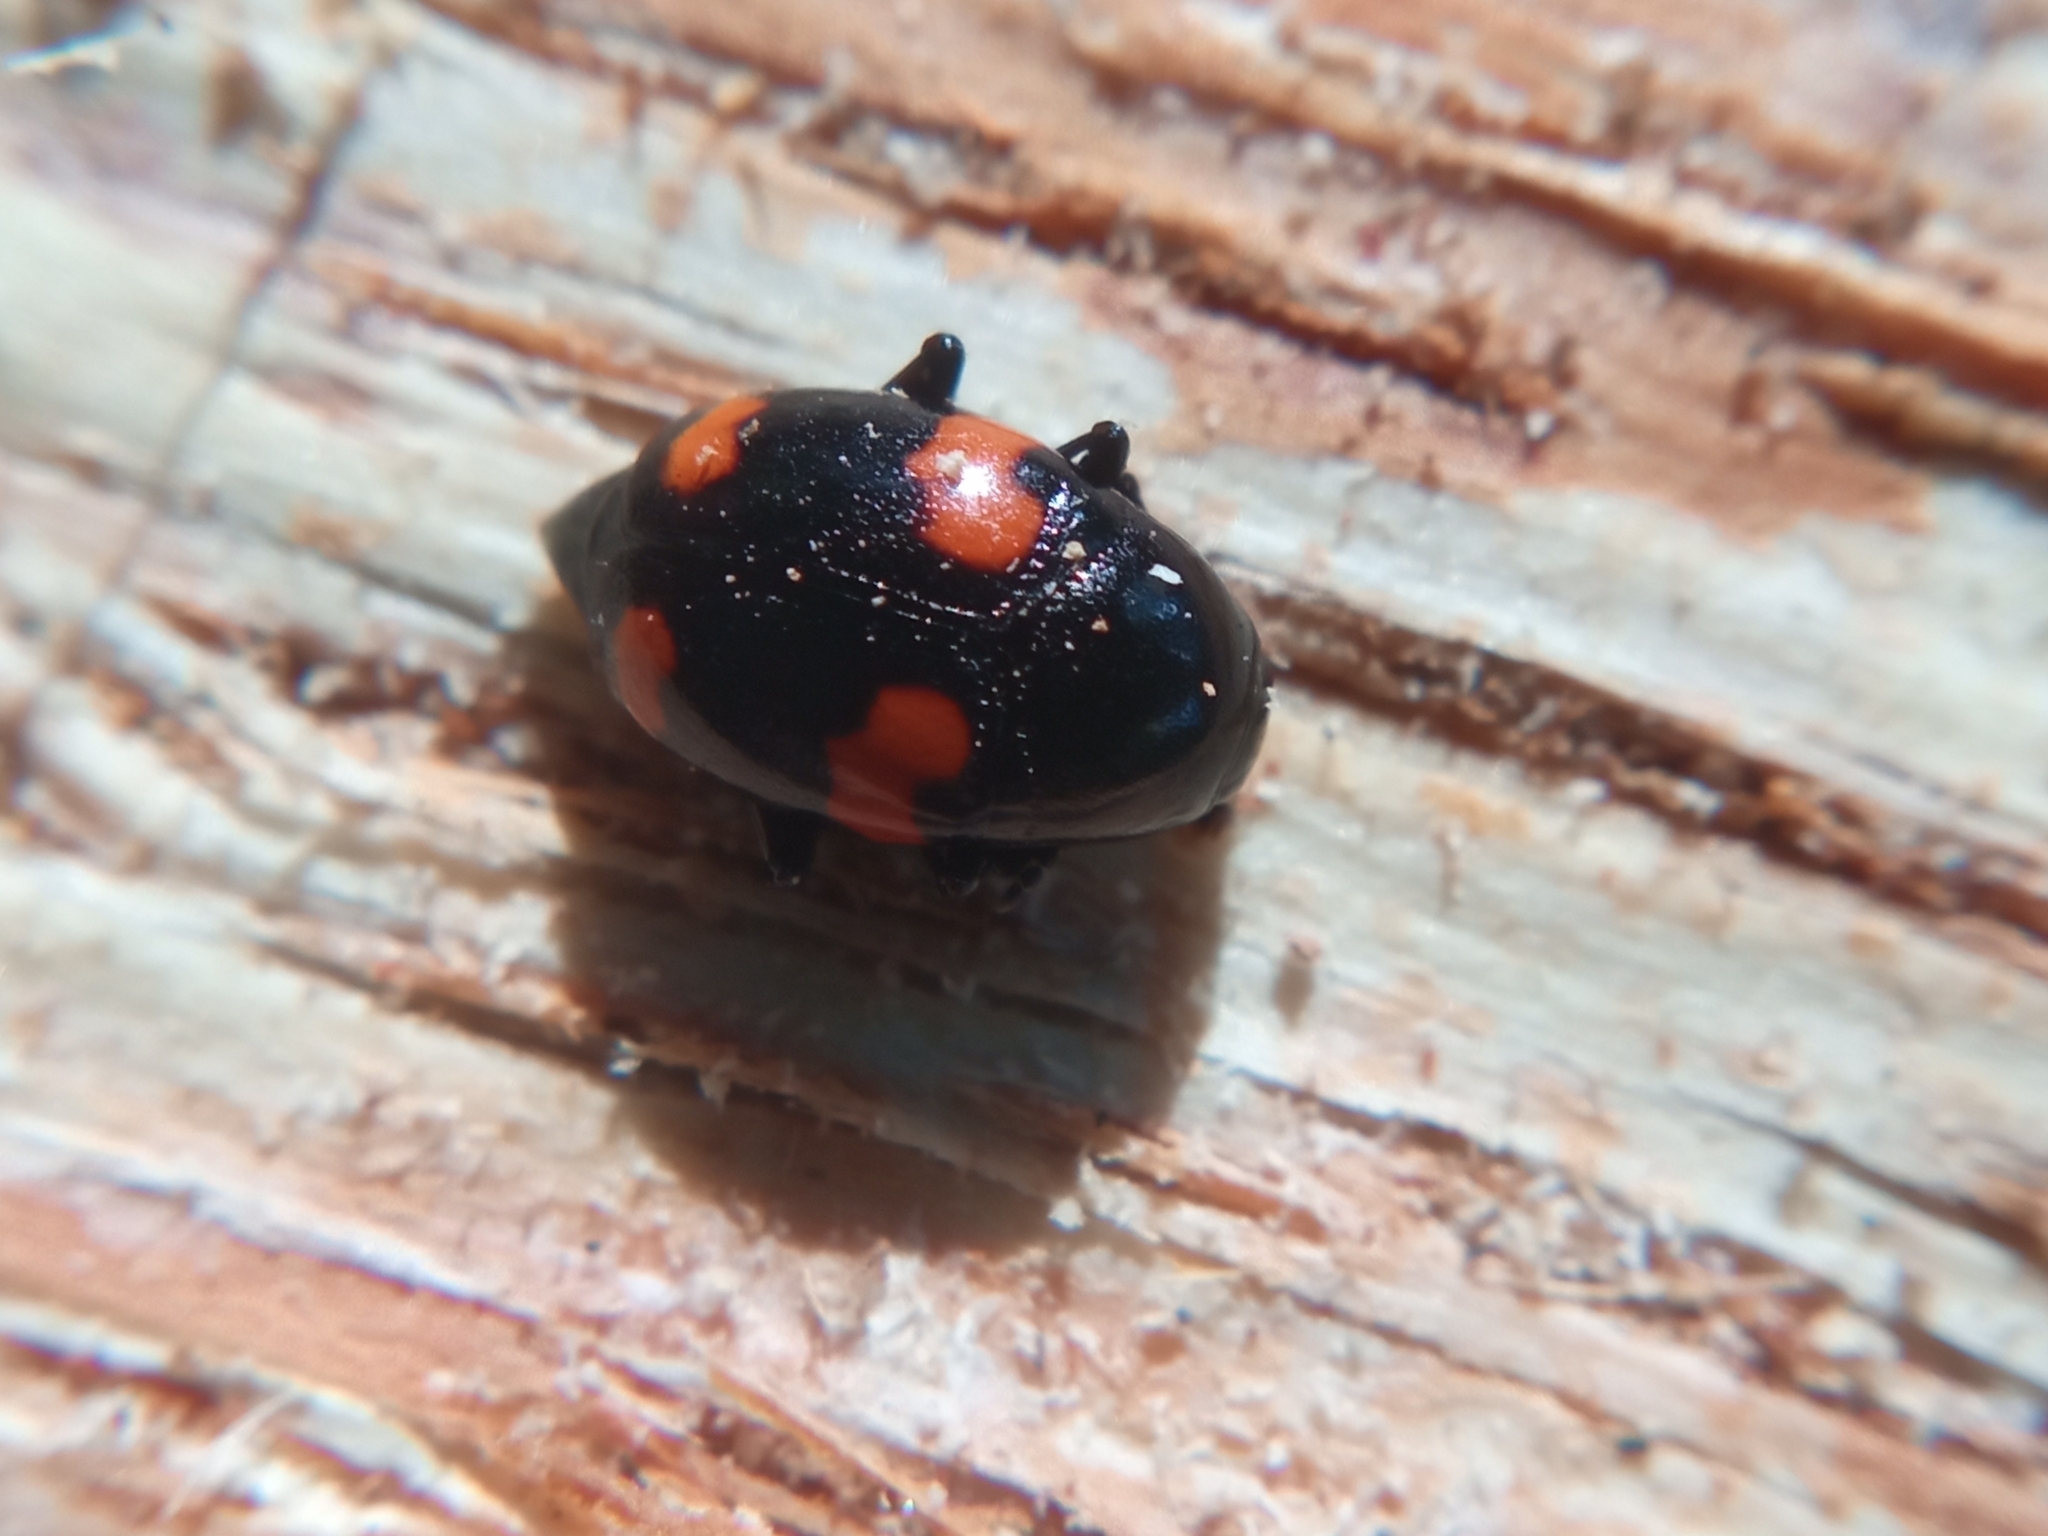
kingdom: Animalia
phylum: Arthropoda
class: Insecta
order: Coleoptera
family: Staphylinidae
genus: Scaphidium
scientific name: Scaphidium quadrimaculatum
